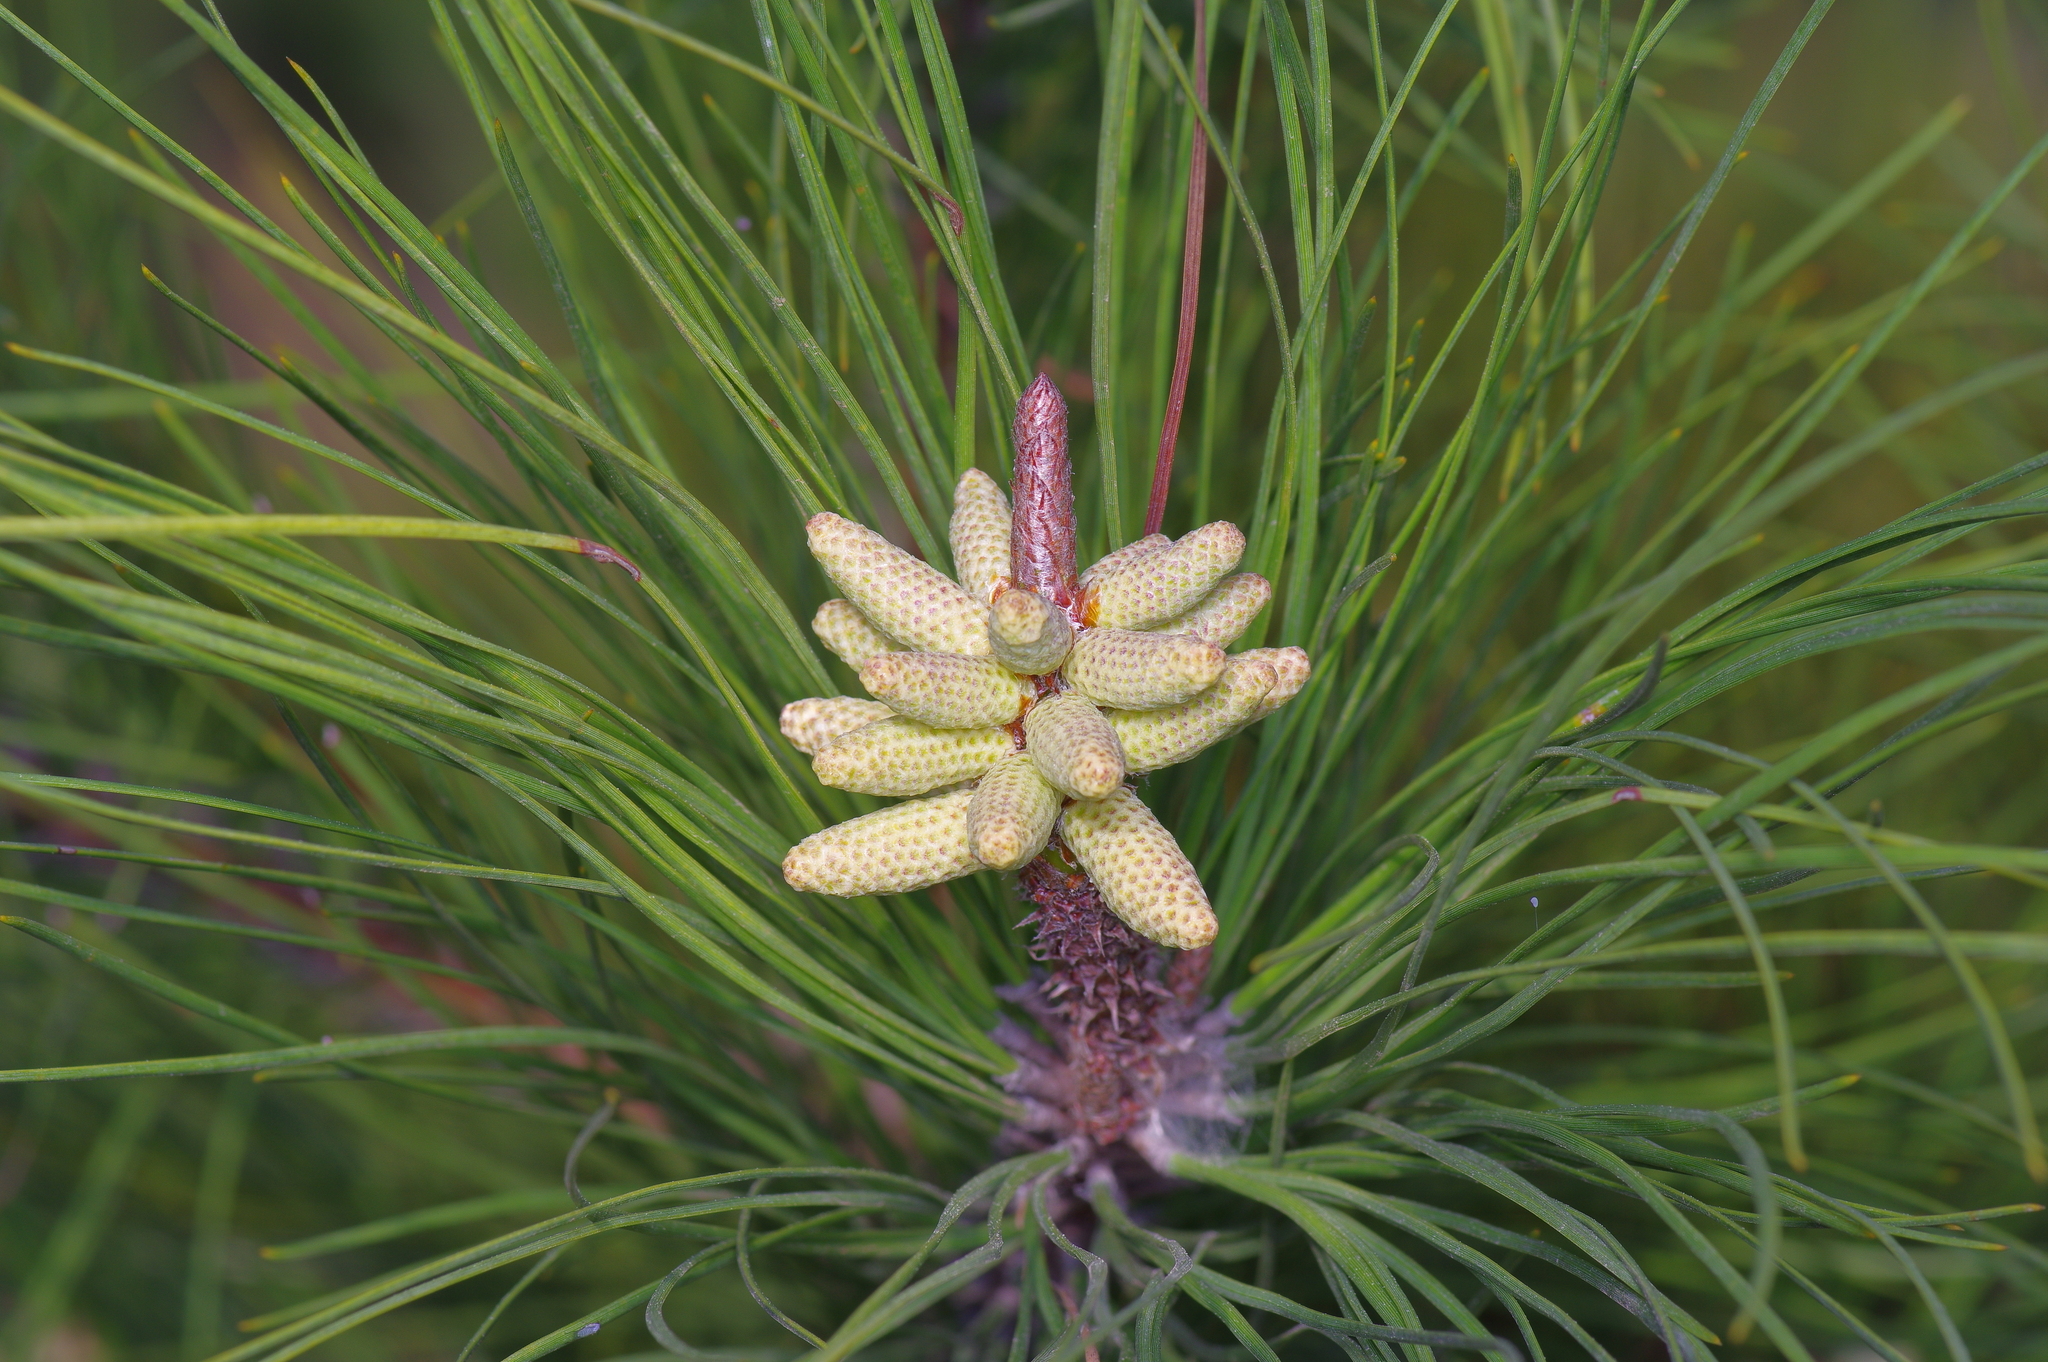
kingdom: Plantae
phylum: Tracheophyta
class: Pinopsida
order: Pinales
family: Pinaceae
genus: Pinus
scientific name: Pinus taeda
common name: Loblolly pine
